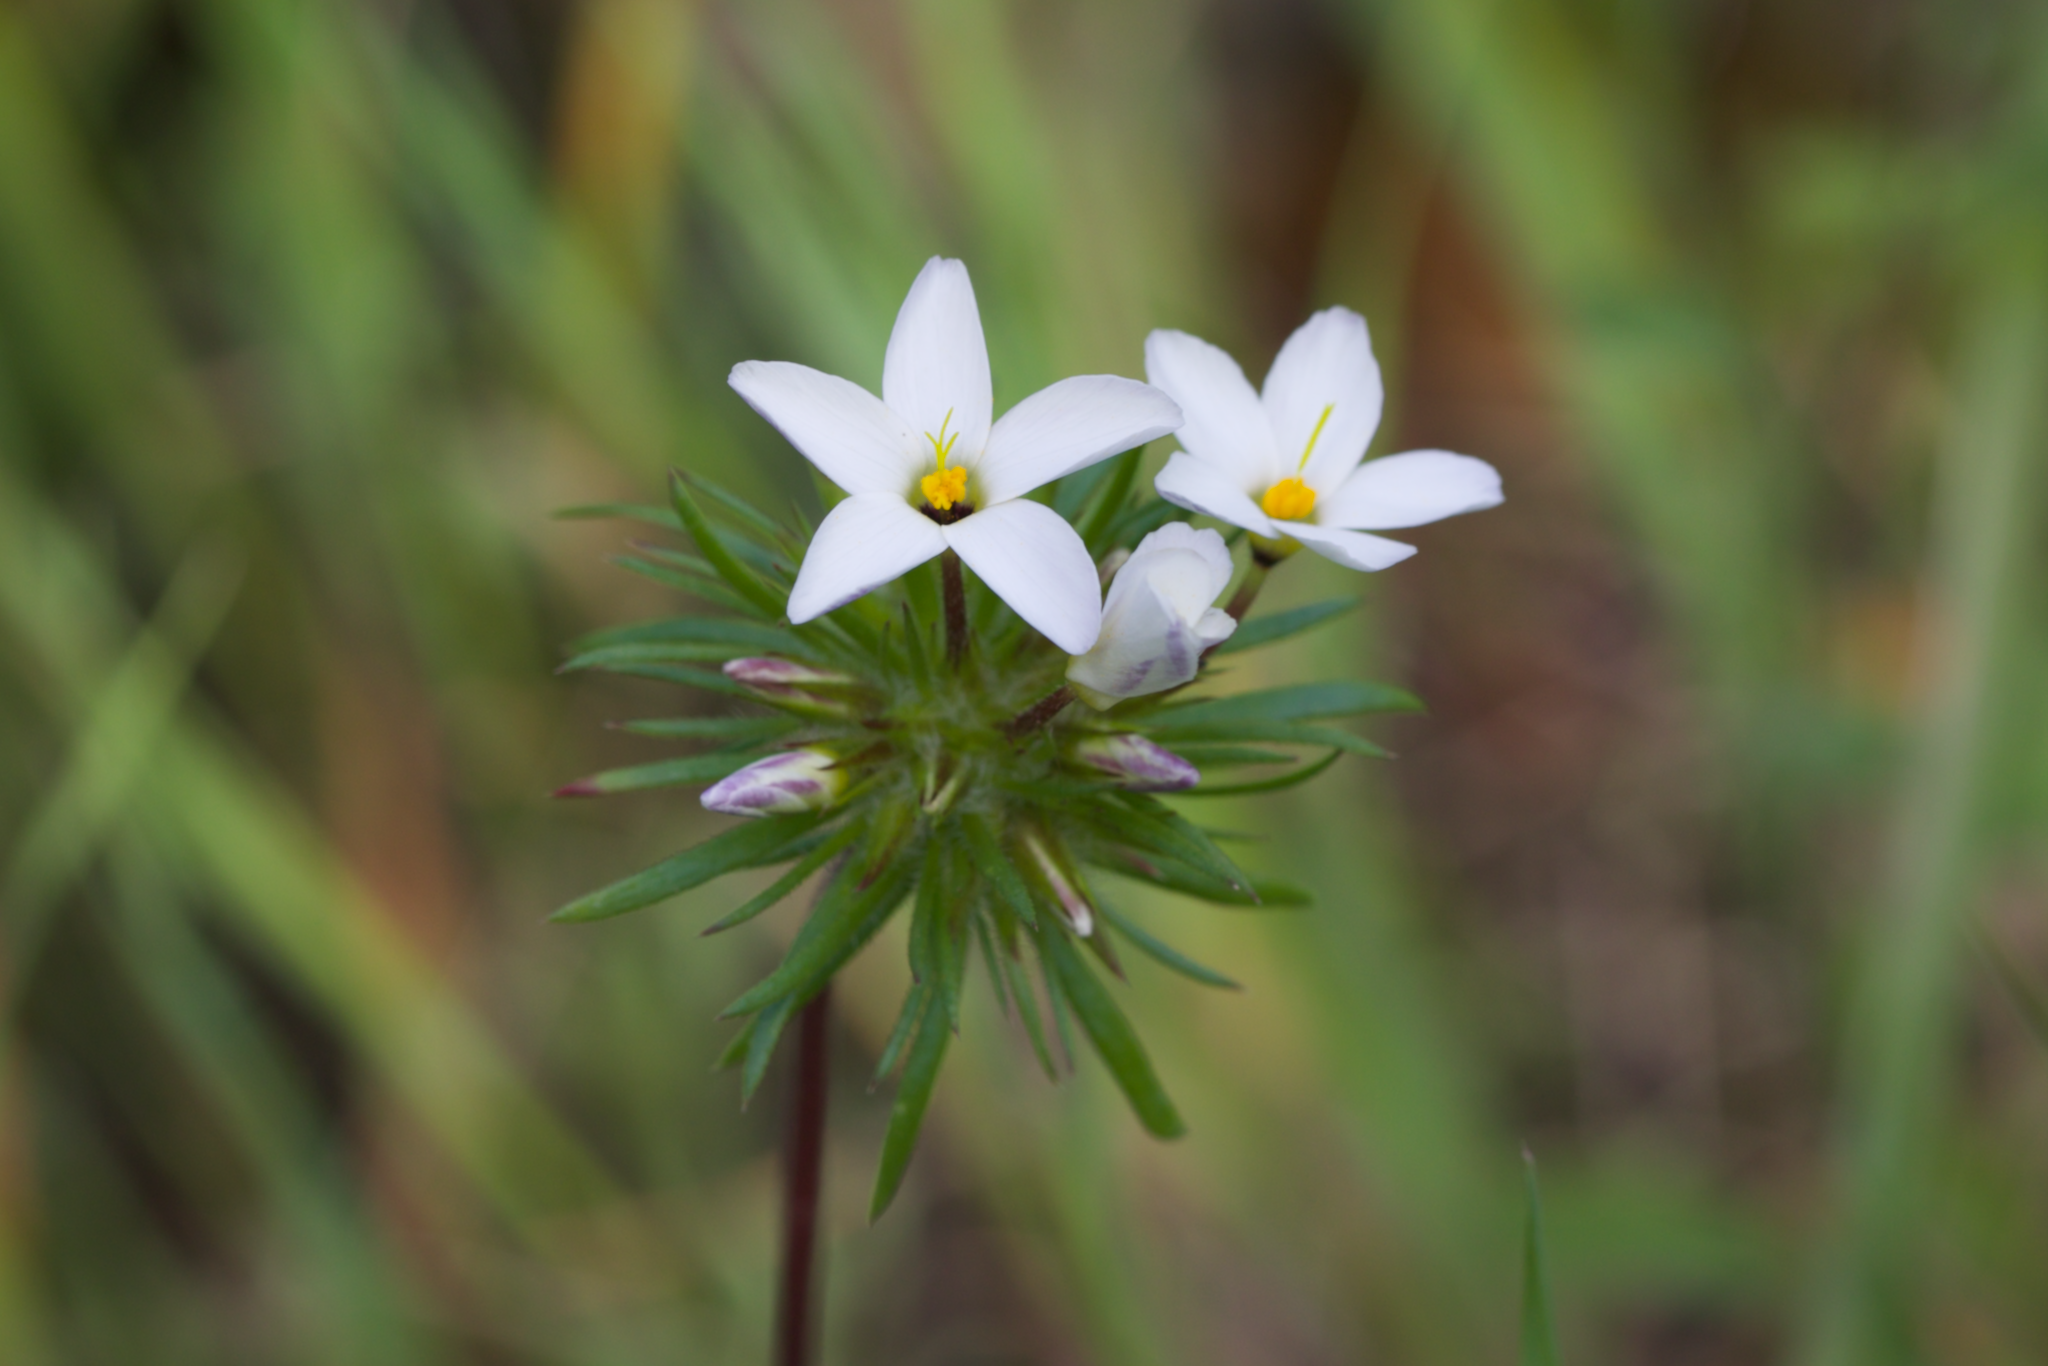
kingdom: Plantae
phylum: Tracheophyta
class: Magnoliopsida
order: Ericales
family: Polemoniaceae
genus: Leptosiphon
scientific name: Leptosiphon androsaceus
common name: False babystars
